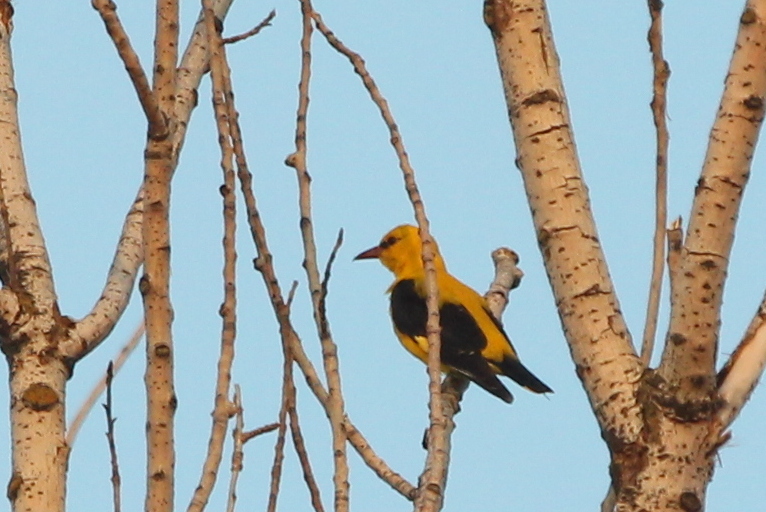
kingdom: Animalia
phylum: Chordata
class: Aves
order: Passeriformes
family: Oriolidae
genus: Oriolus
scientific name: Oriolus oriolus
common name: Eurasian golden oriole
